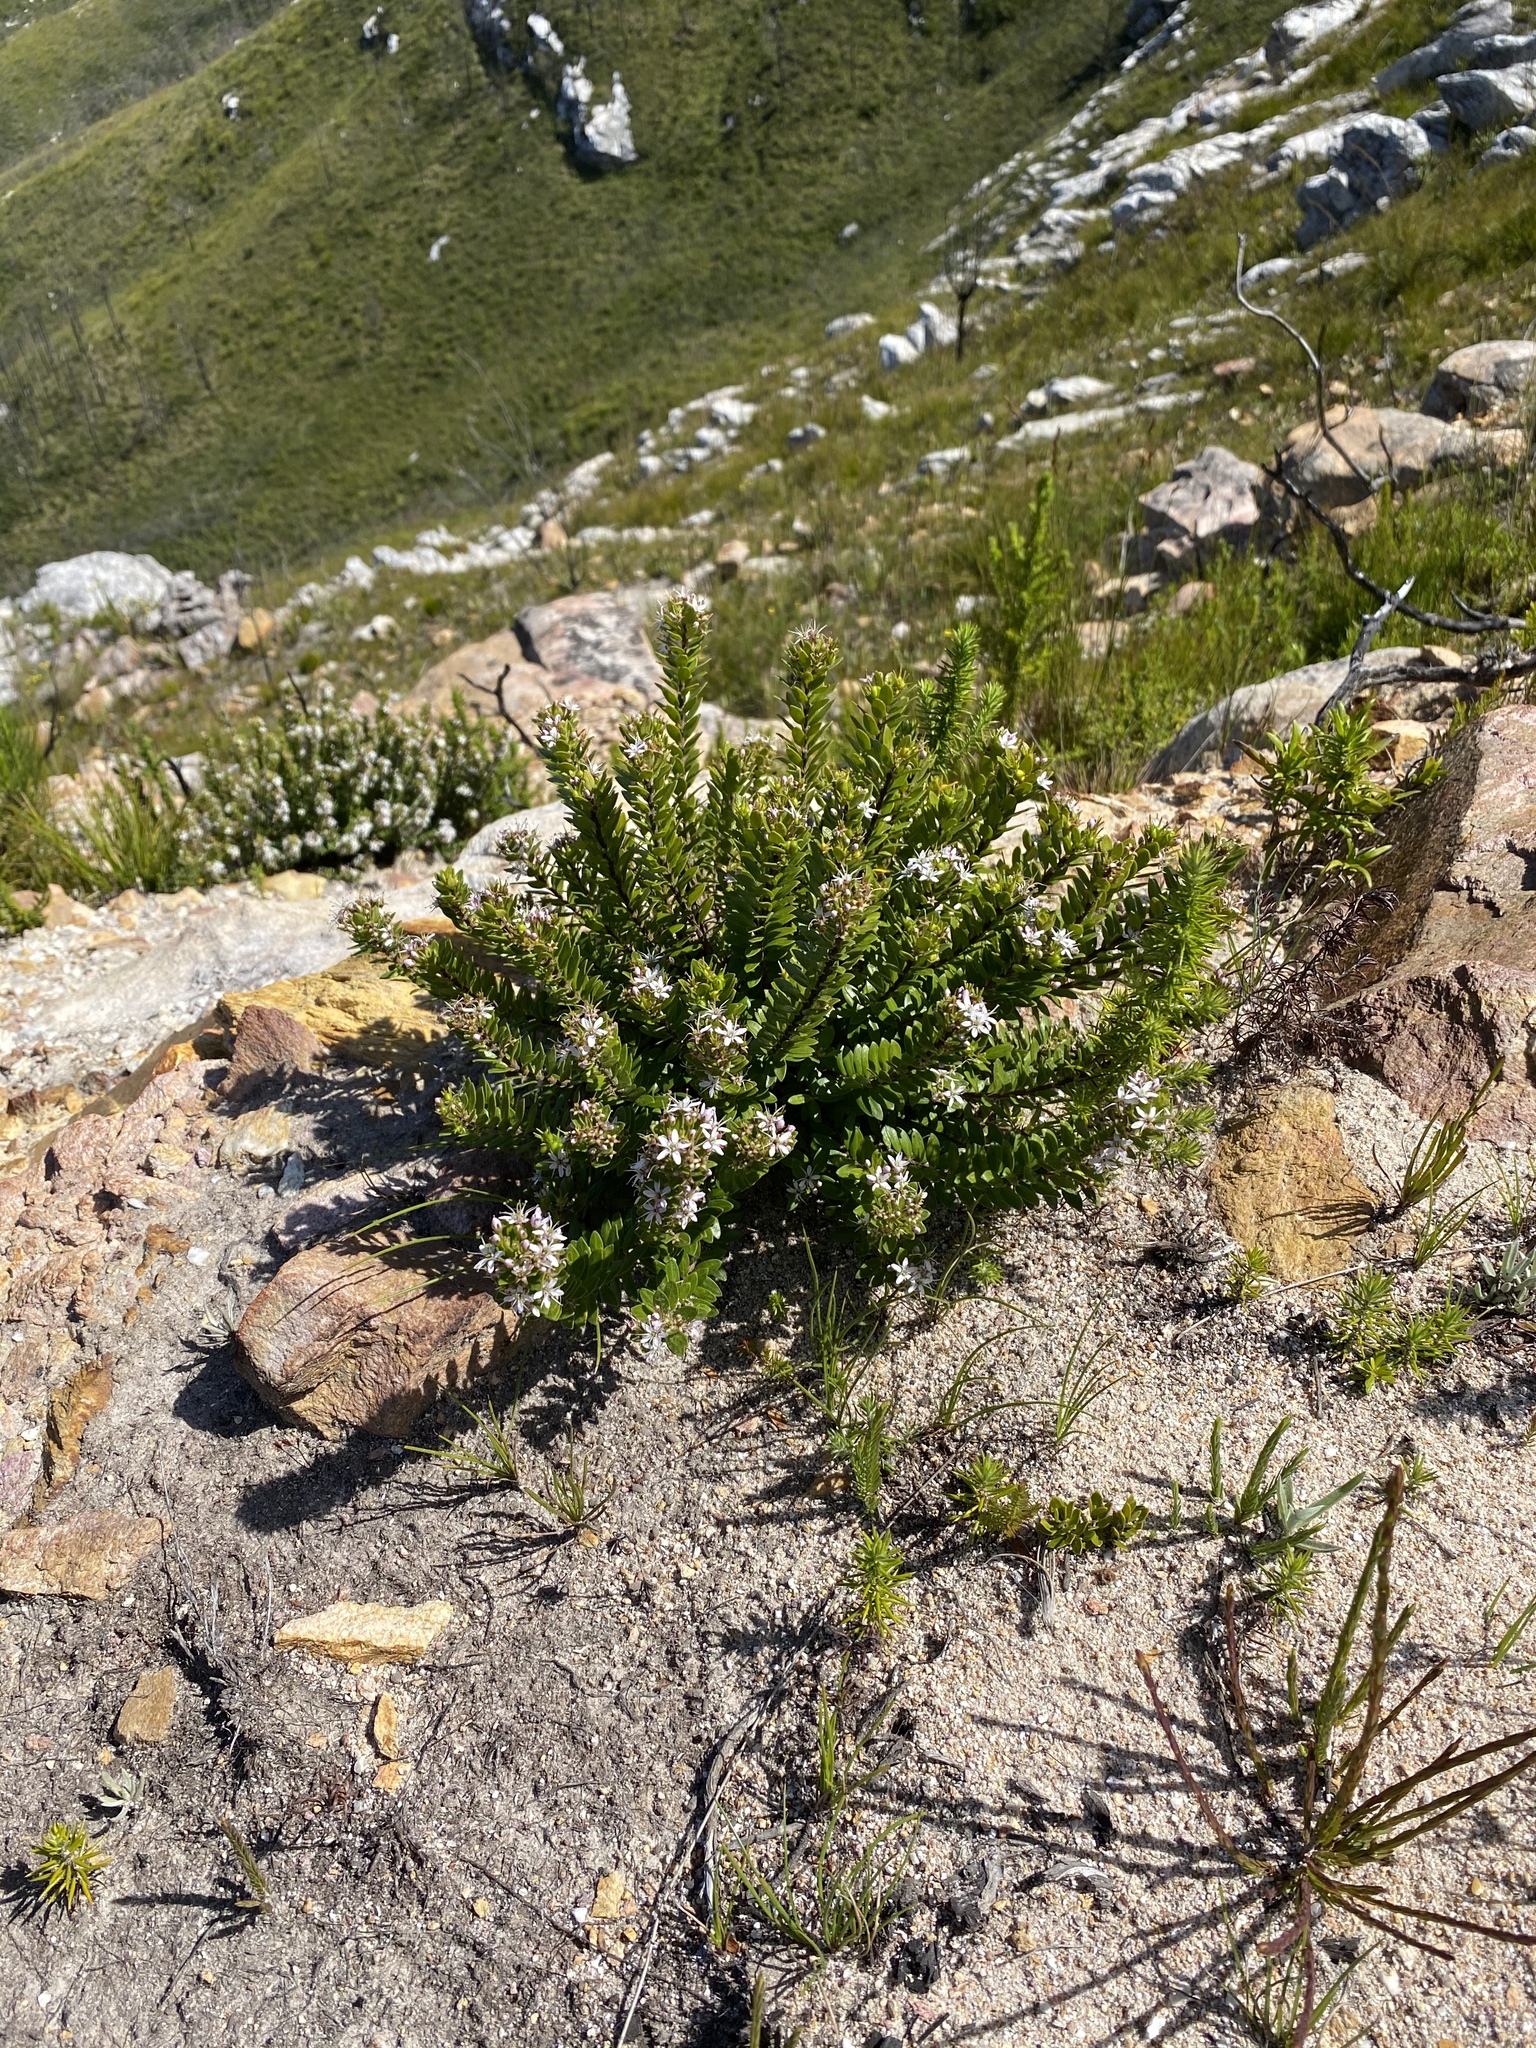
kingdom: Plantae
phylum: Tracheophyta
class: Magnoliopsida
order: Sapindales
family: Rutaceae
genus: Agathosma
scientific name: Agathosma ovata
